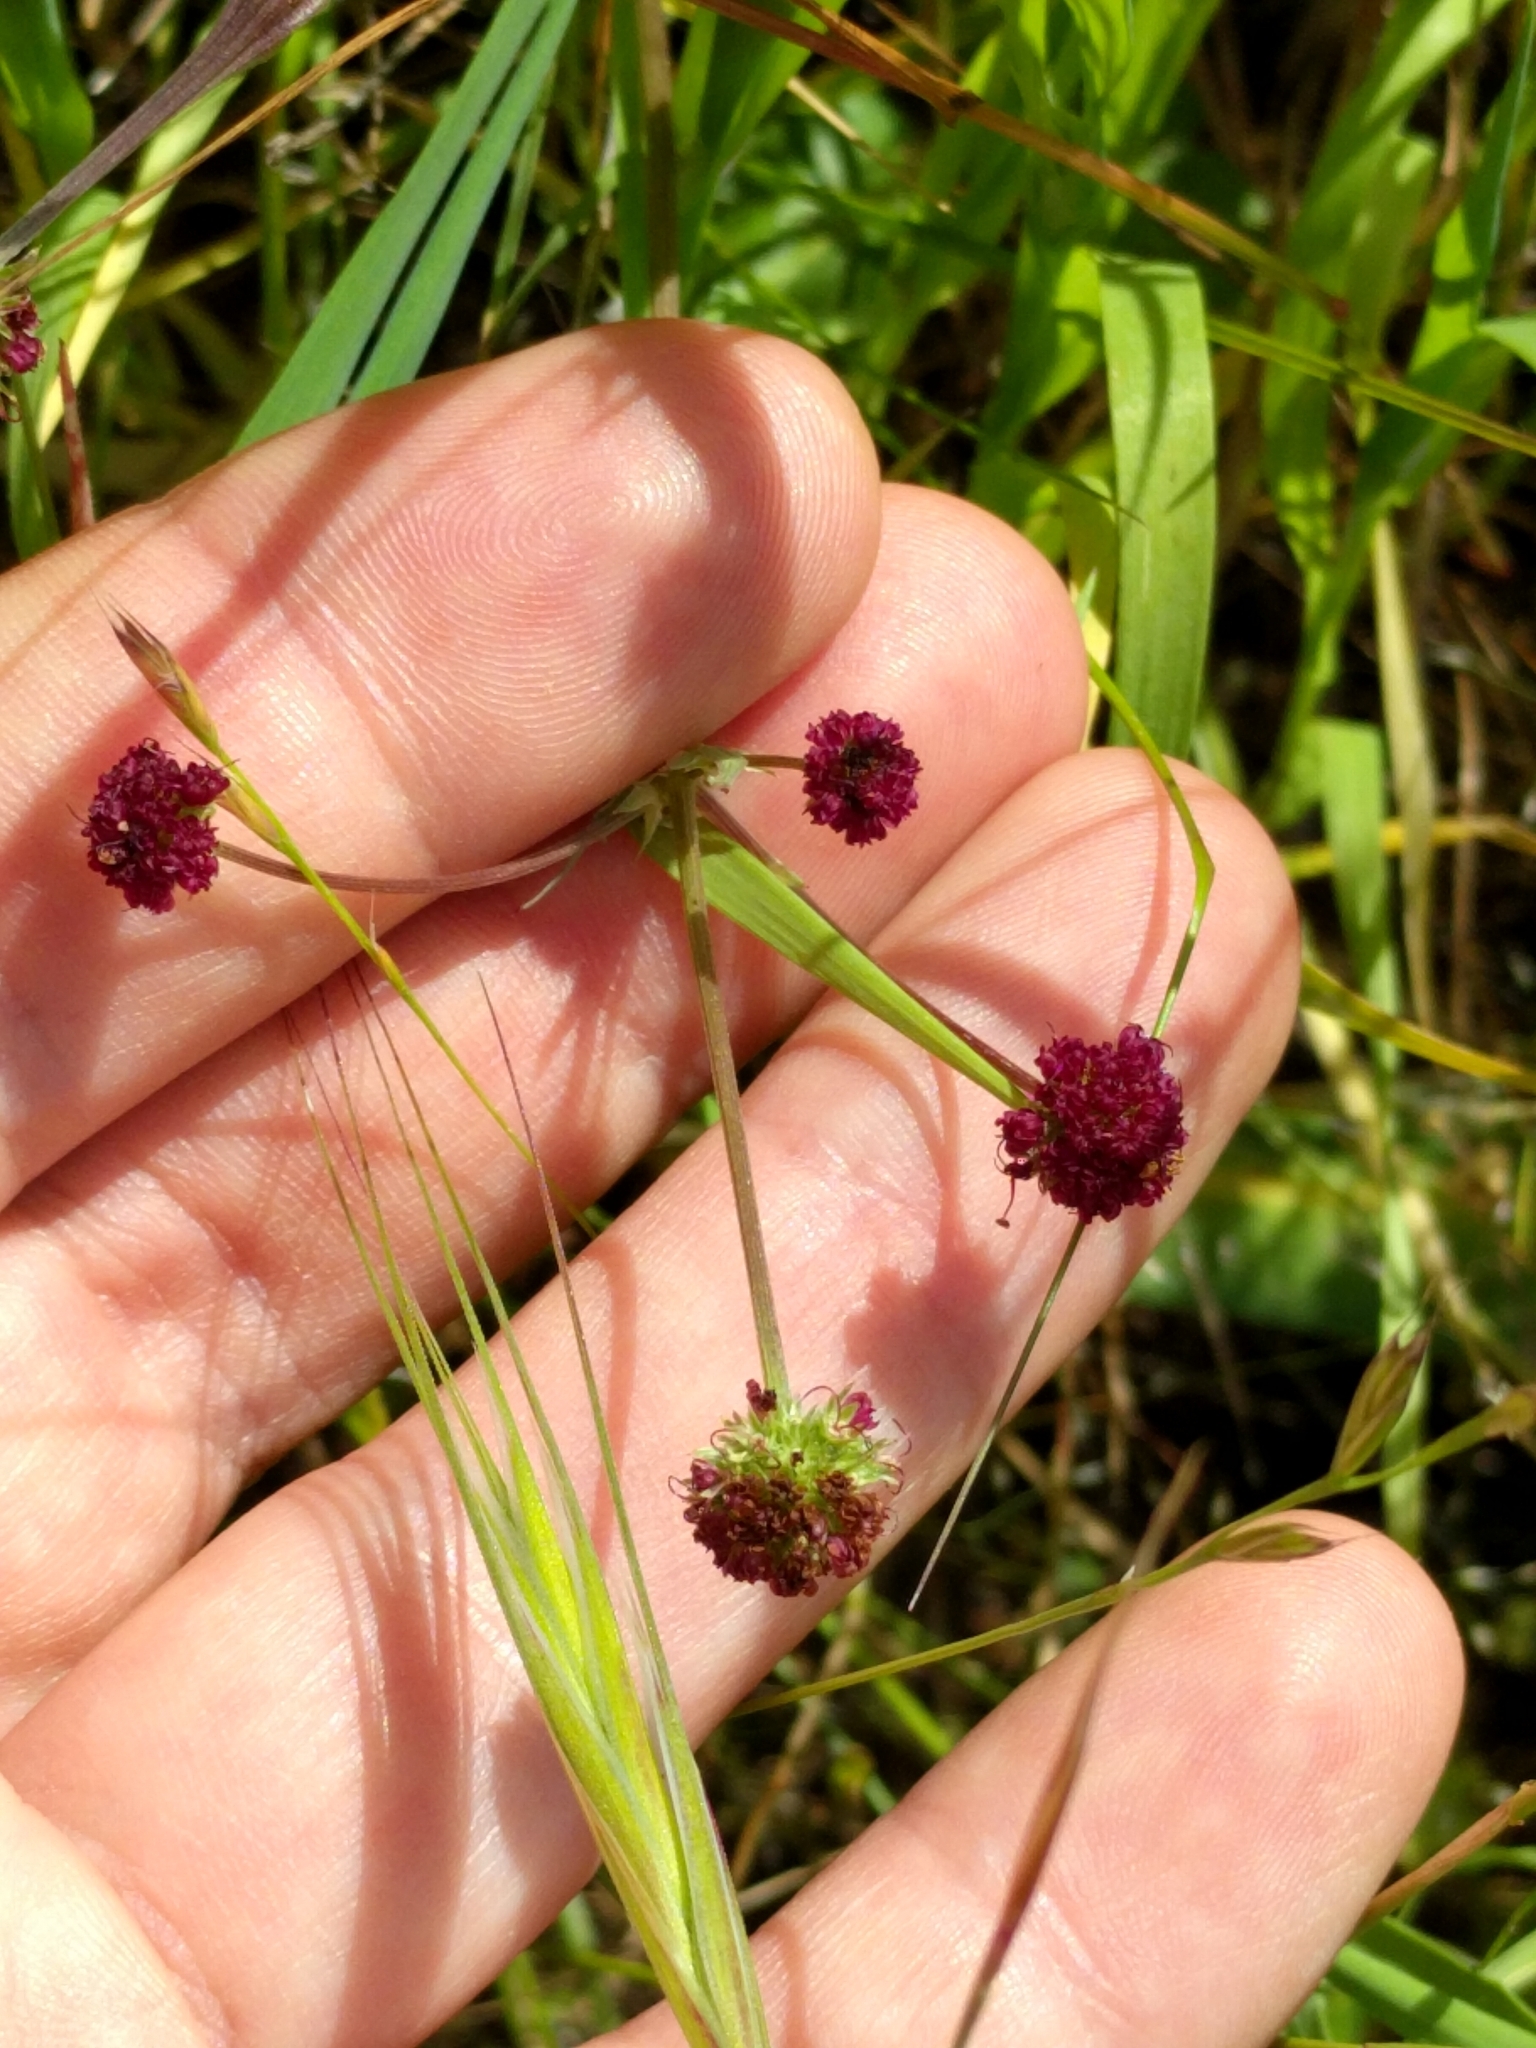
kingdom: Plantae
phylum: Tracheophyta
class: Magnoliopsida
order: Apiales
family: Apiaceae
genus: Sanicula
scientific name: Sanicula bipinnatifida
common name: Shoe-buttons
